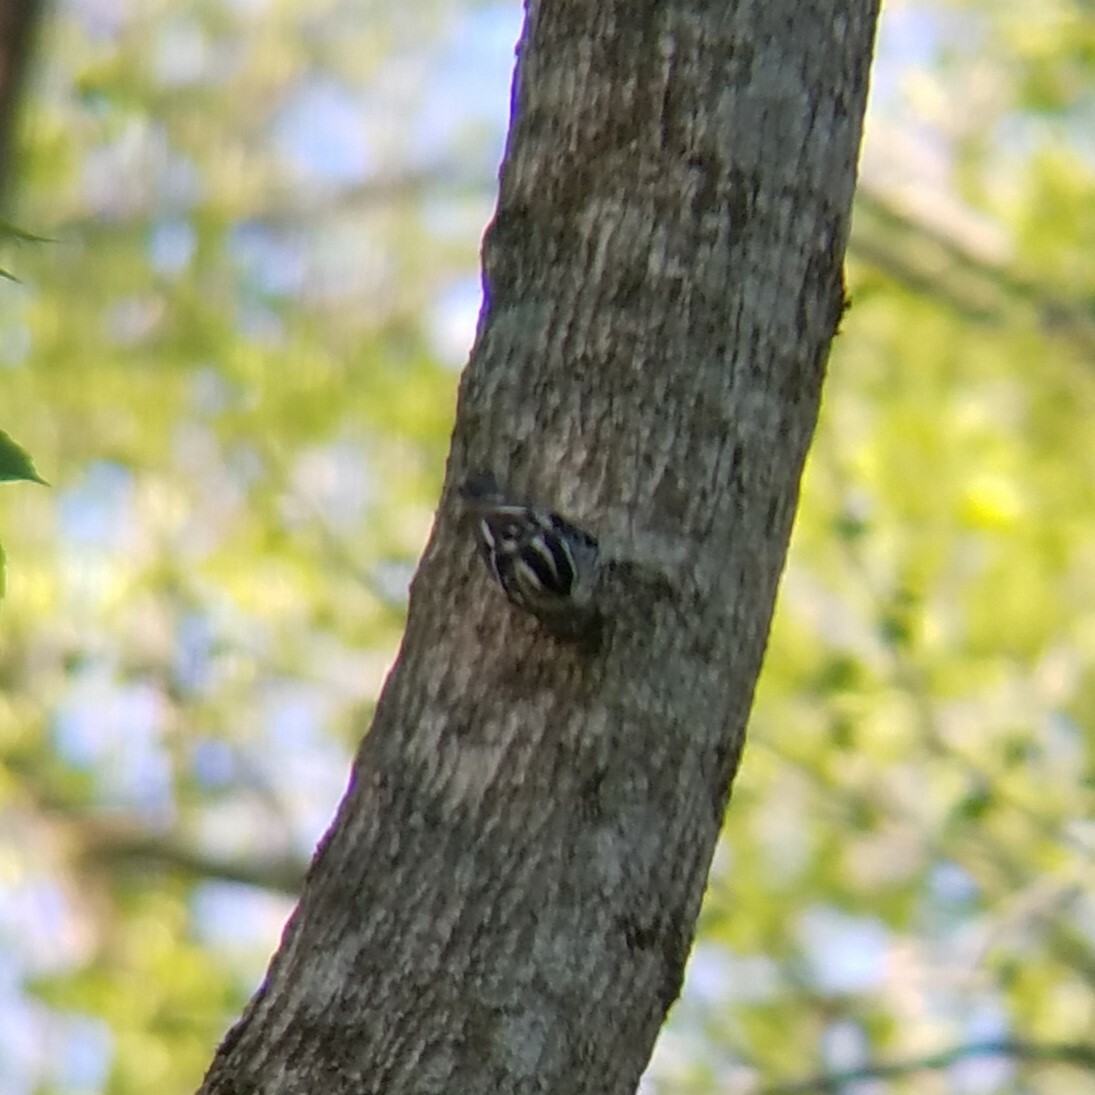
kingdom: Animalia
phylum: Chordata
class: Aves
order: Passeriformes
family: Parulidae
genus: Mniotilta
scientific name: Mniotilta varia
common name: Black-and-white warbler
